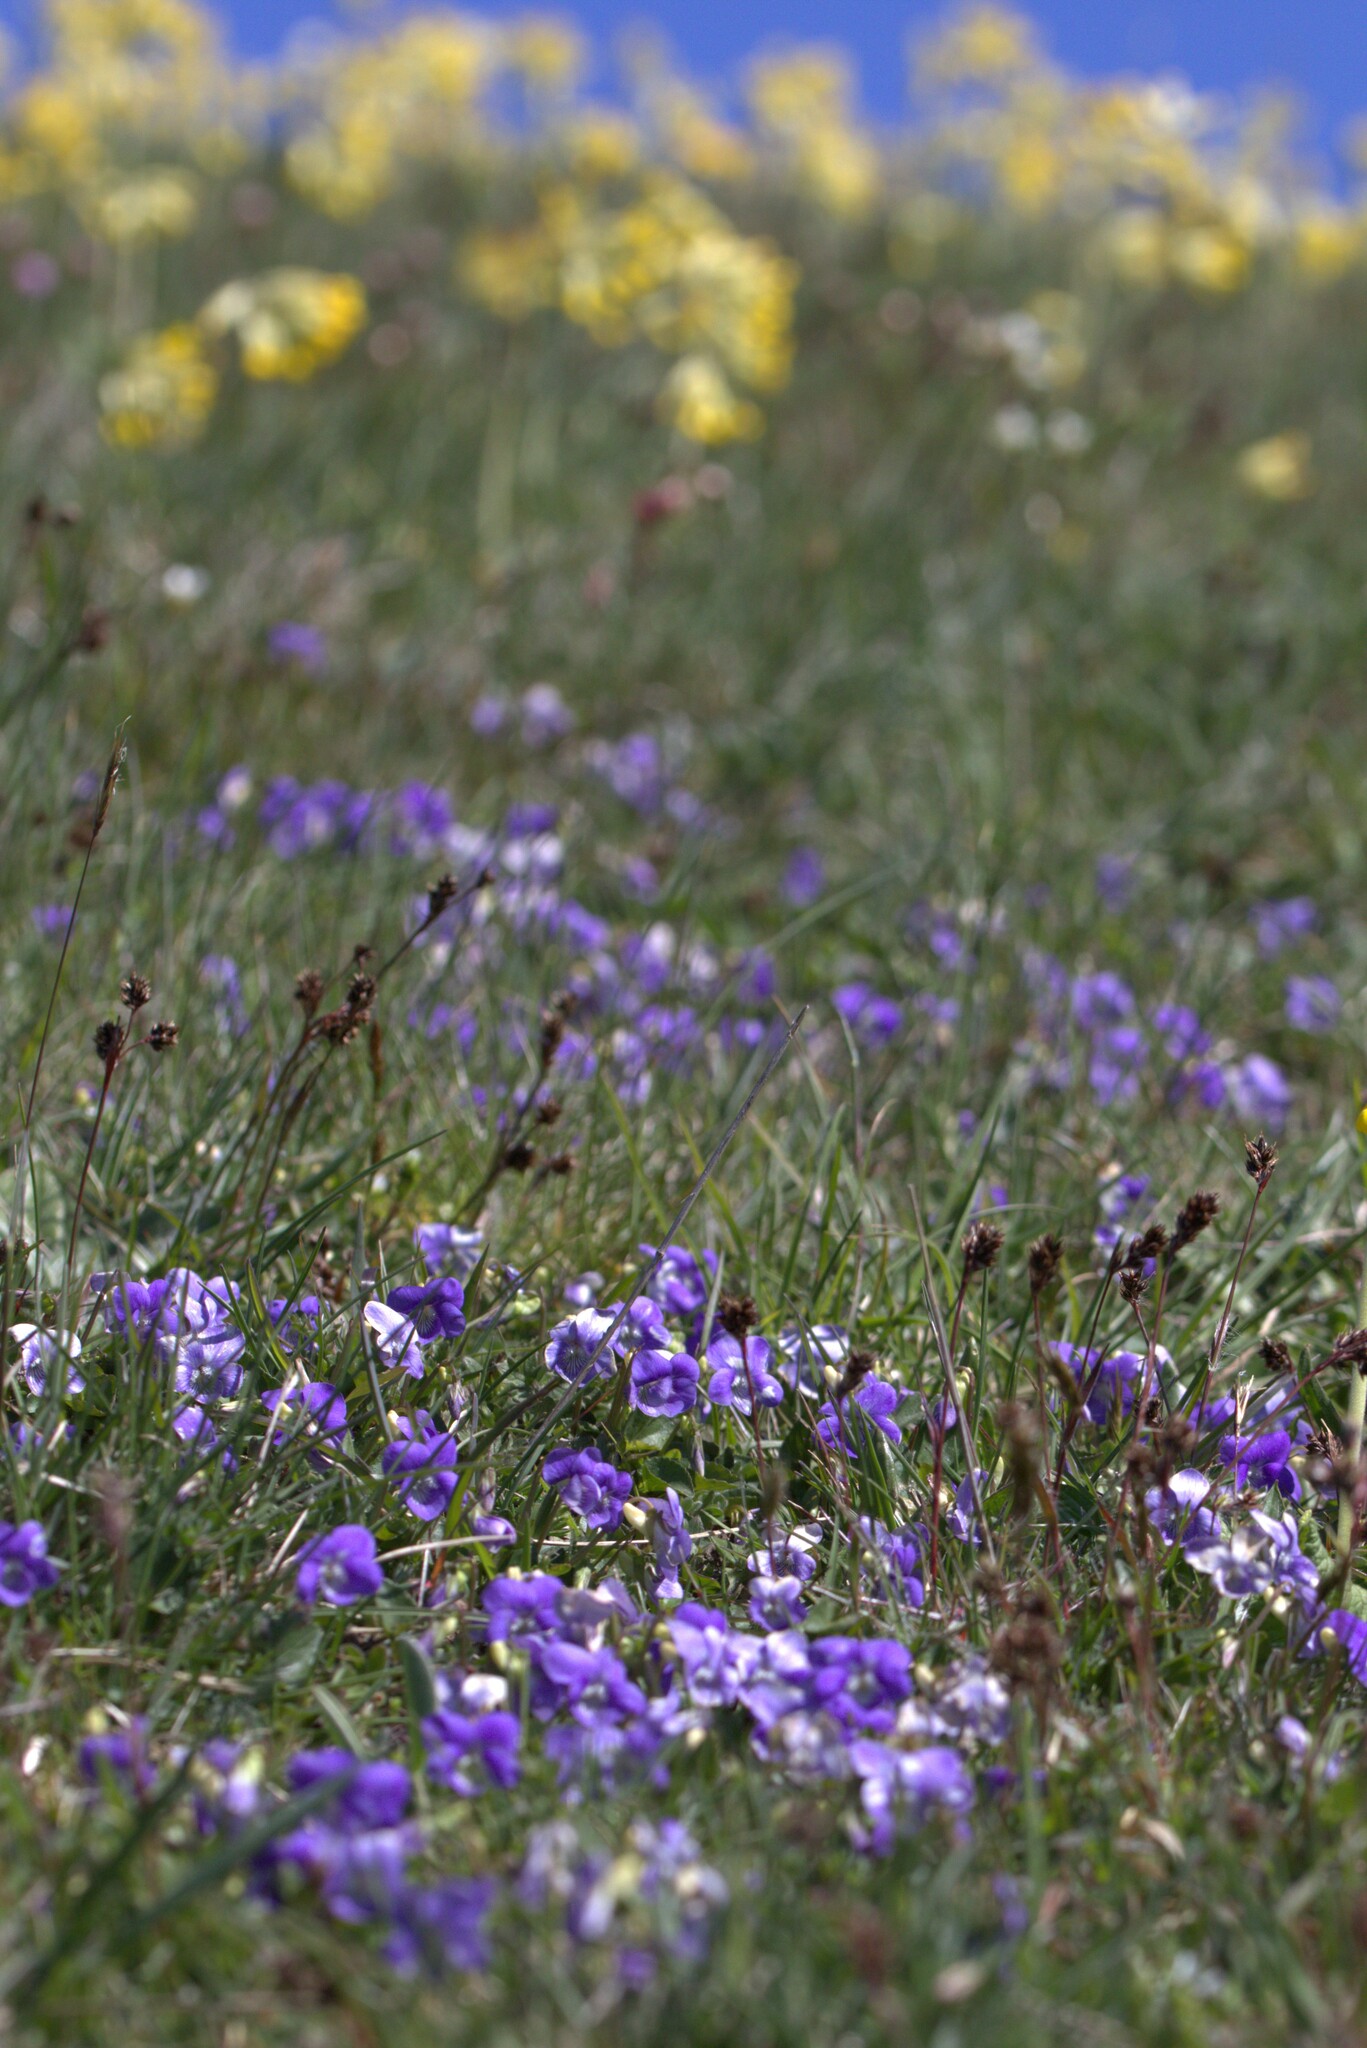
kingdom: Plantae
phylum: Tracheophyta
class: Magnoliopsida
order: Malpighiales
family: Violaceae
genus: Viola
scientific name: Viola riviniana
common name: Common dog-violet
